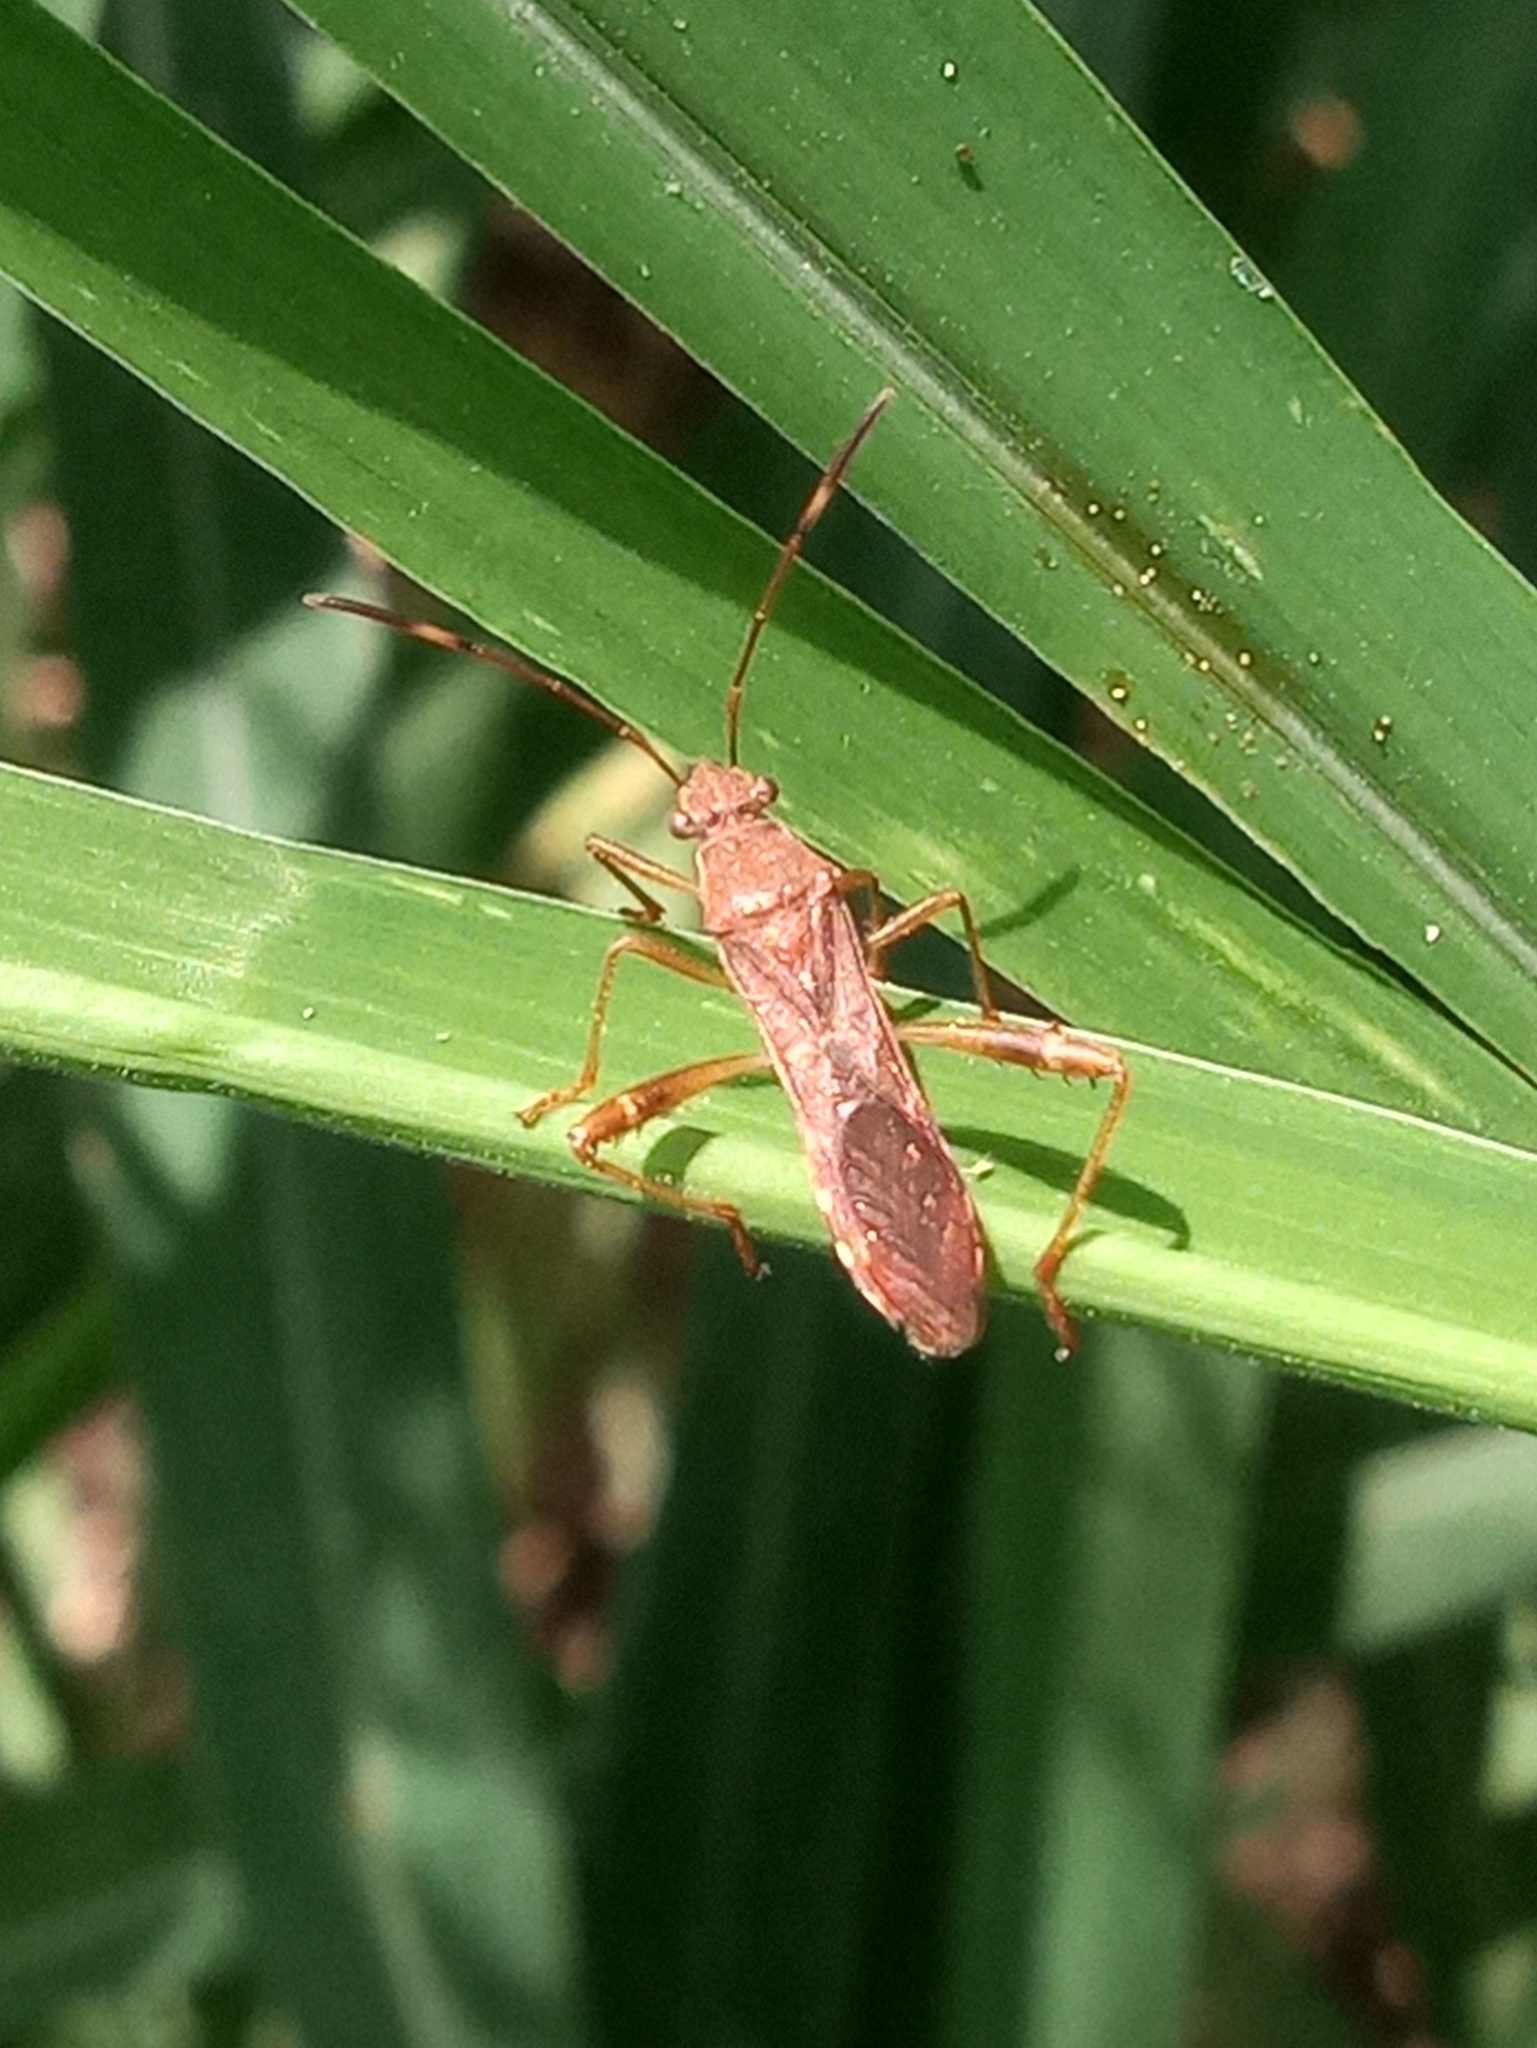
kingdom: Animalia
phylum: Arthropoda
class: Insecta
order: Hemiptera
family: Alydidae
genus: Burtinus
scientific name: Burtinus notatipennis
